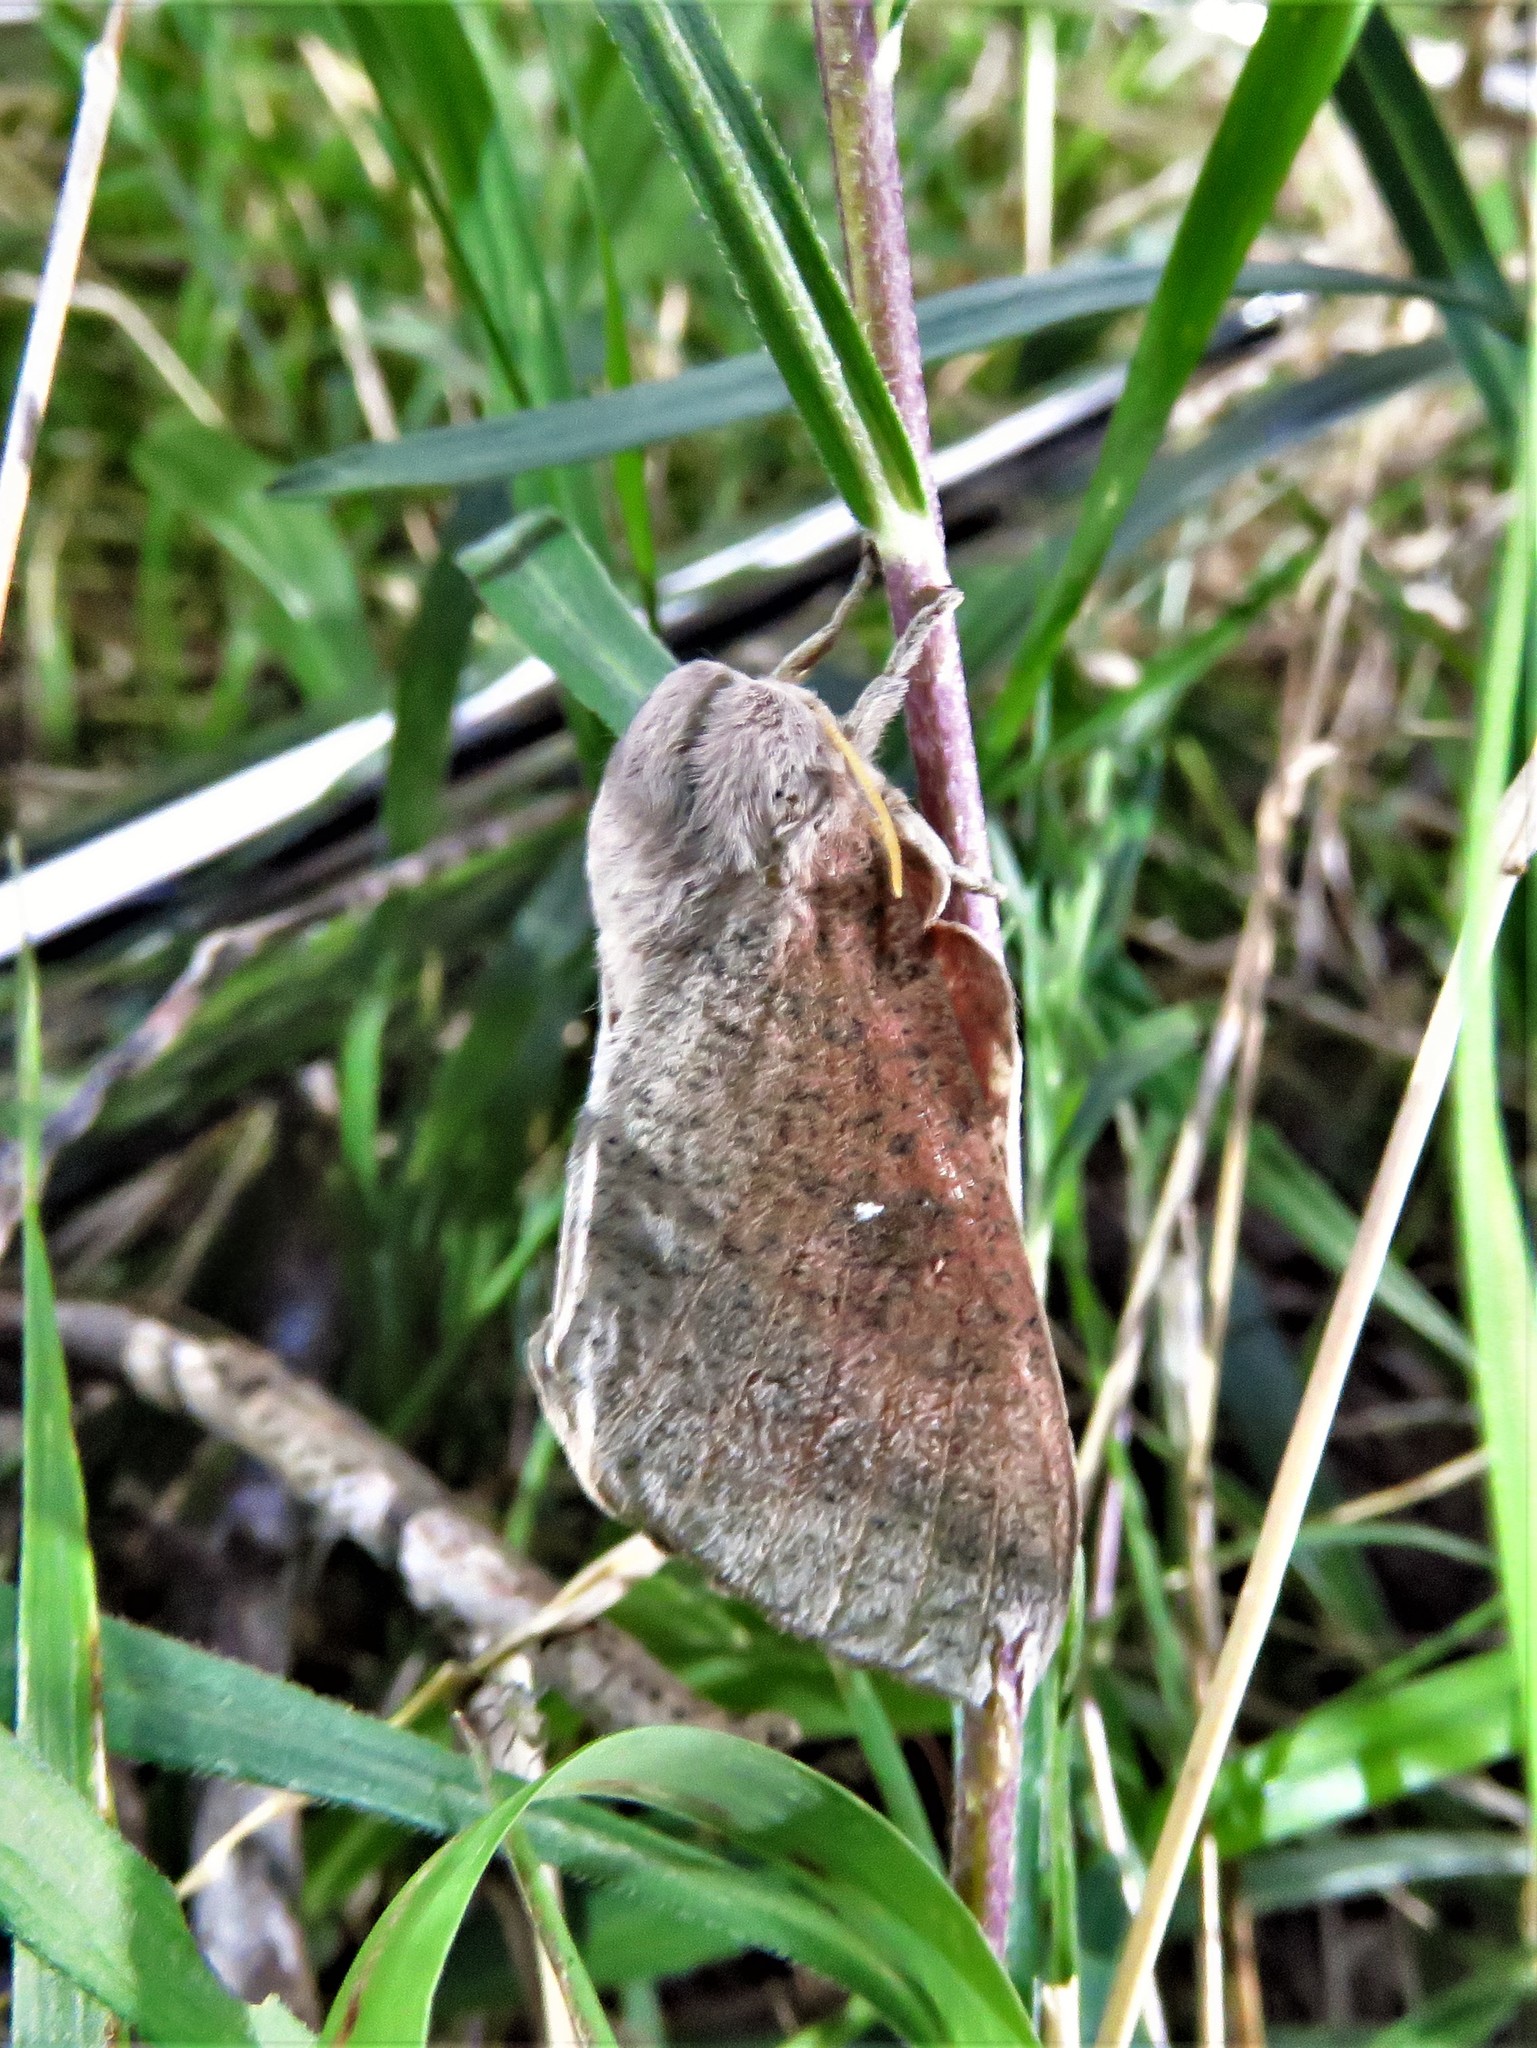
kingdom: Animalia
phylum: Arthropoda
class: Insecta
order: Lepidoptera
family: Saturniidae
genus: Syssphinx
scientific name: Syssphinx bicolor
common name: Honey locust moth
